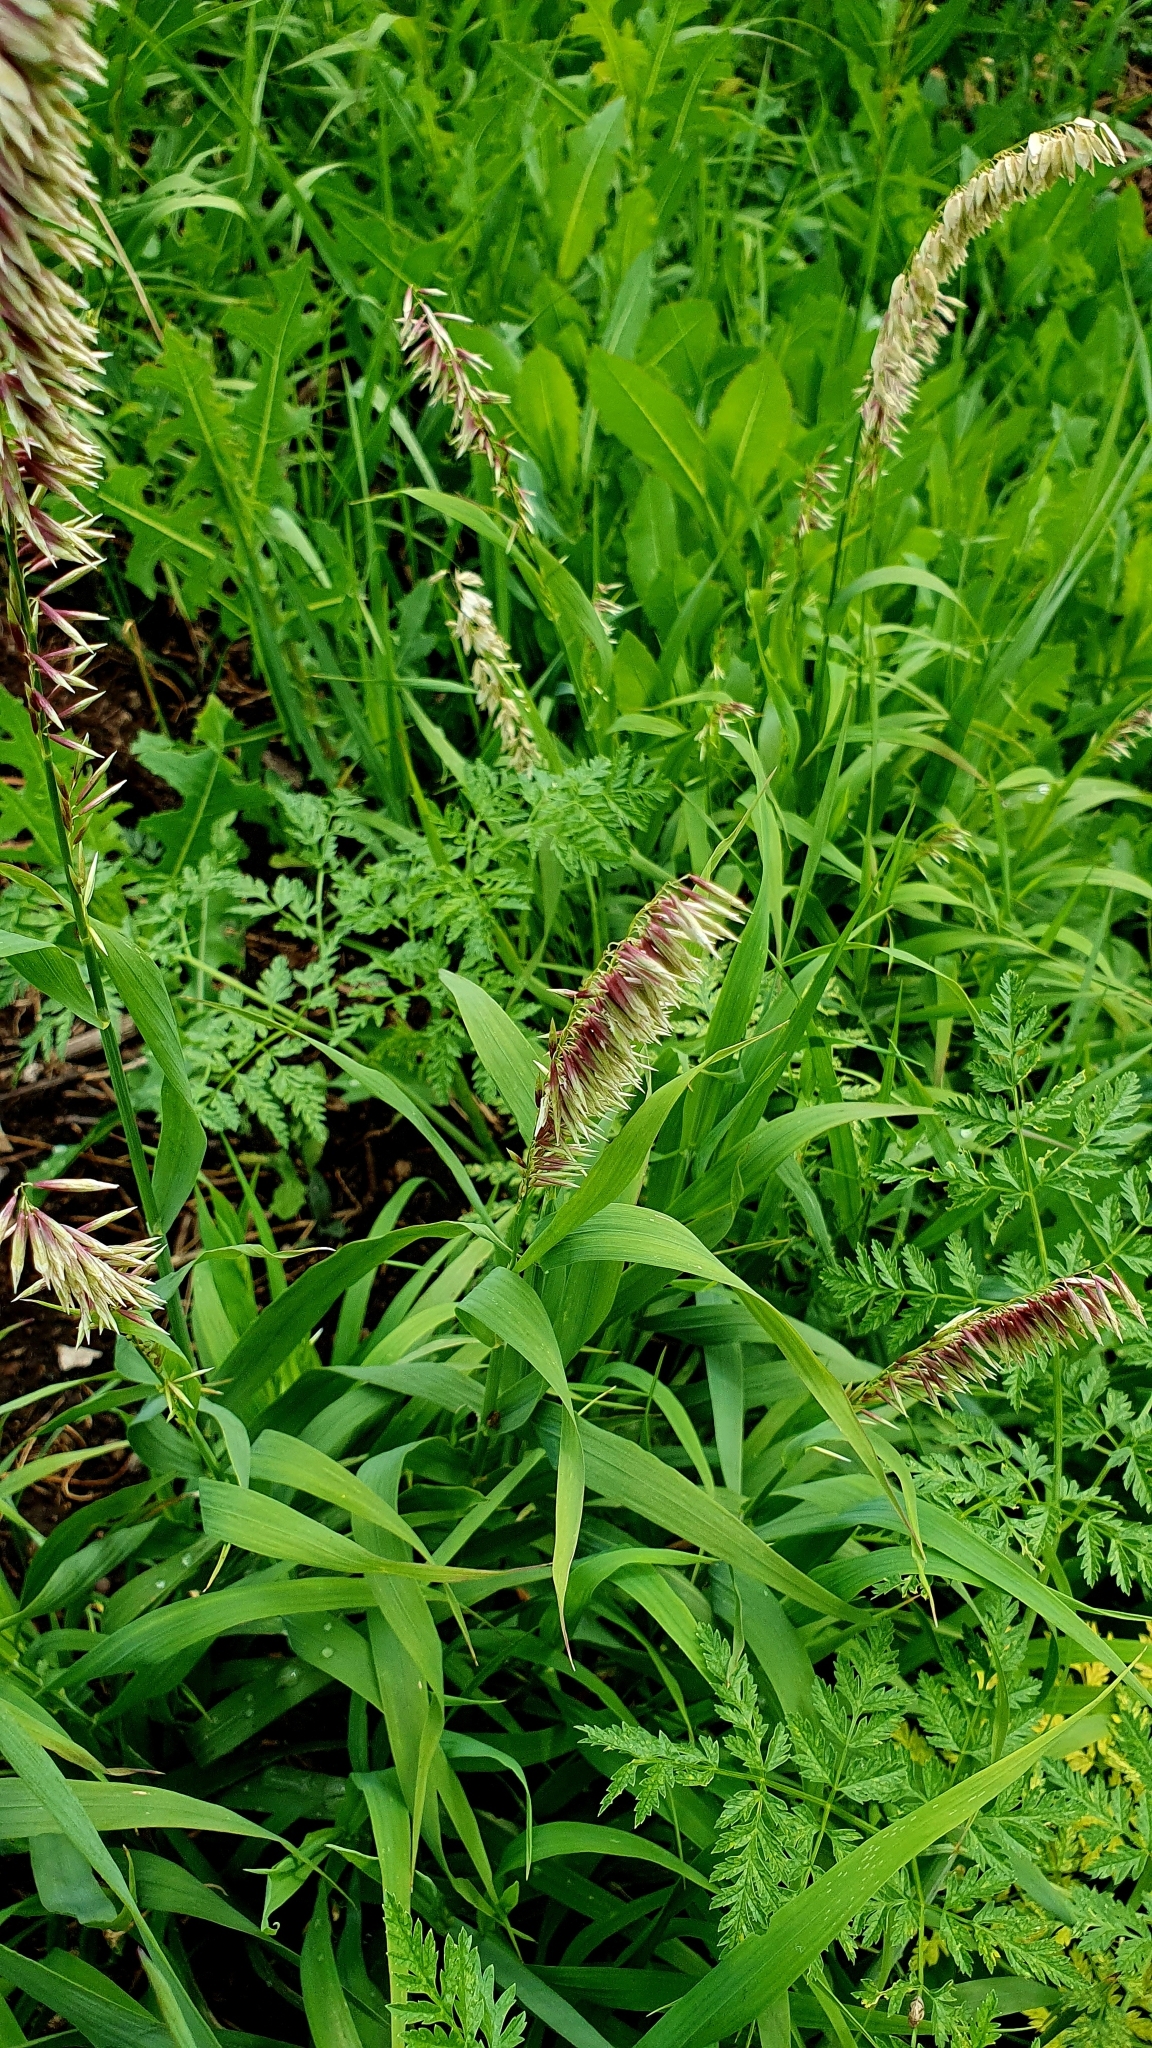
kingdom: Plantae
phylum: Tracheophyta
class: Liliopsida
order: Poales
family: Poaceae
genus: Melica
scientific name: Melica altissima
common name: Siberian melicgrass
